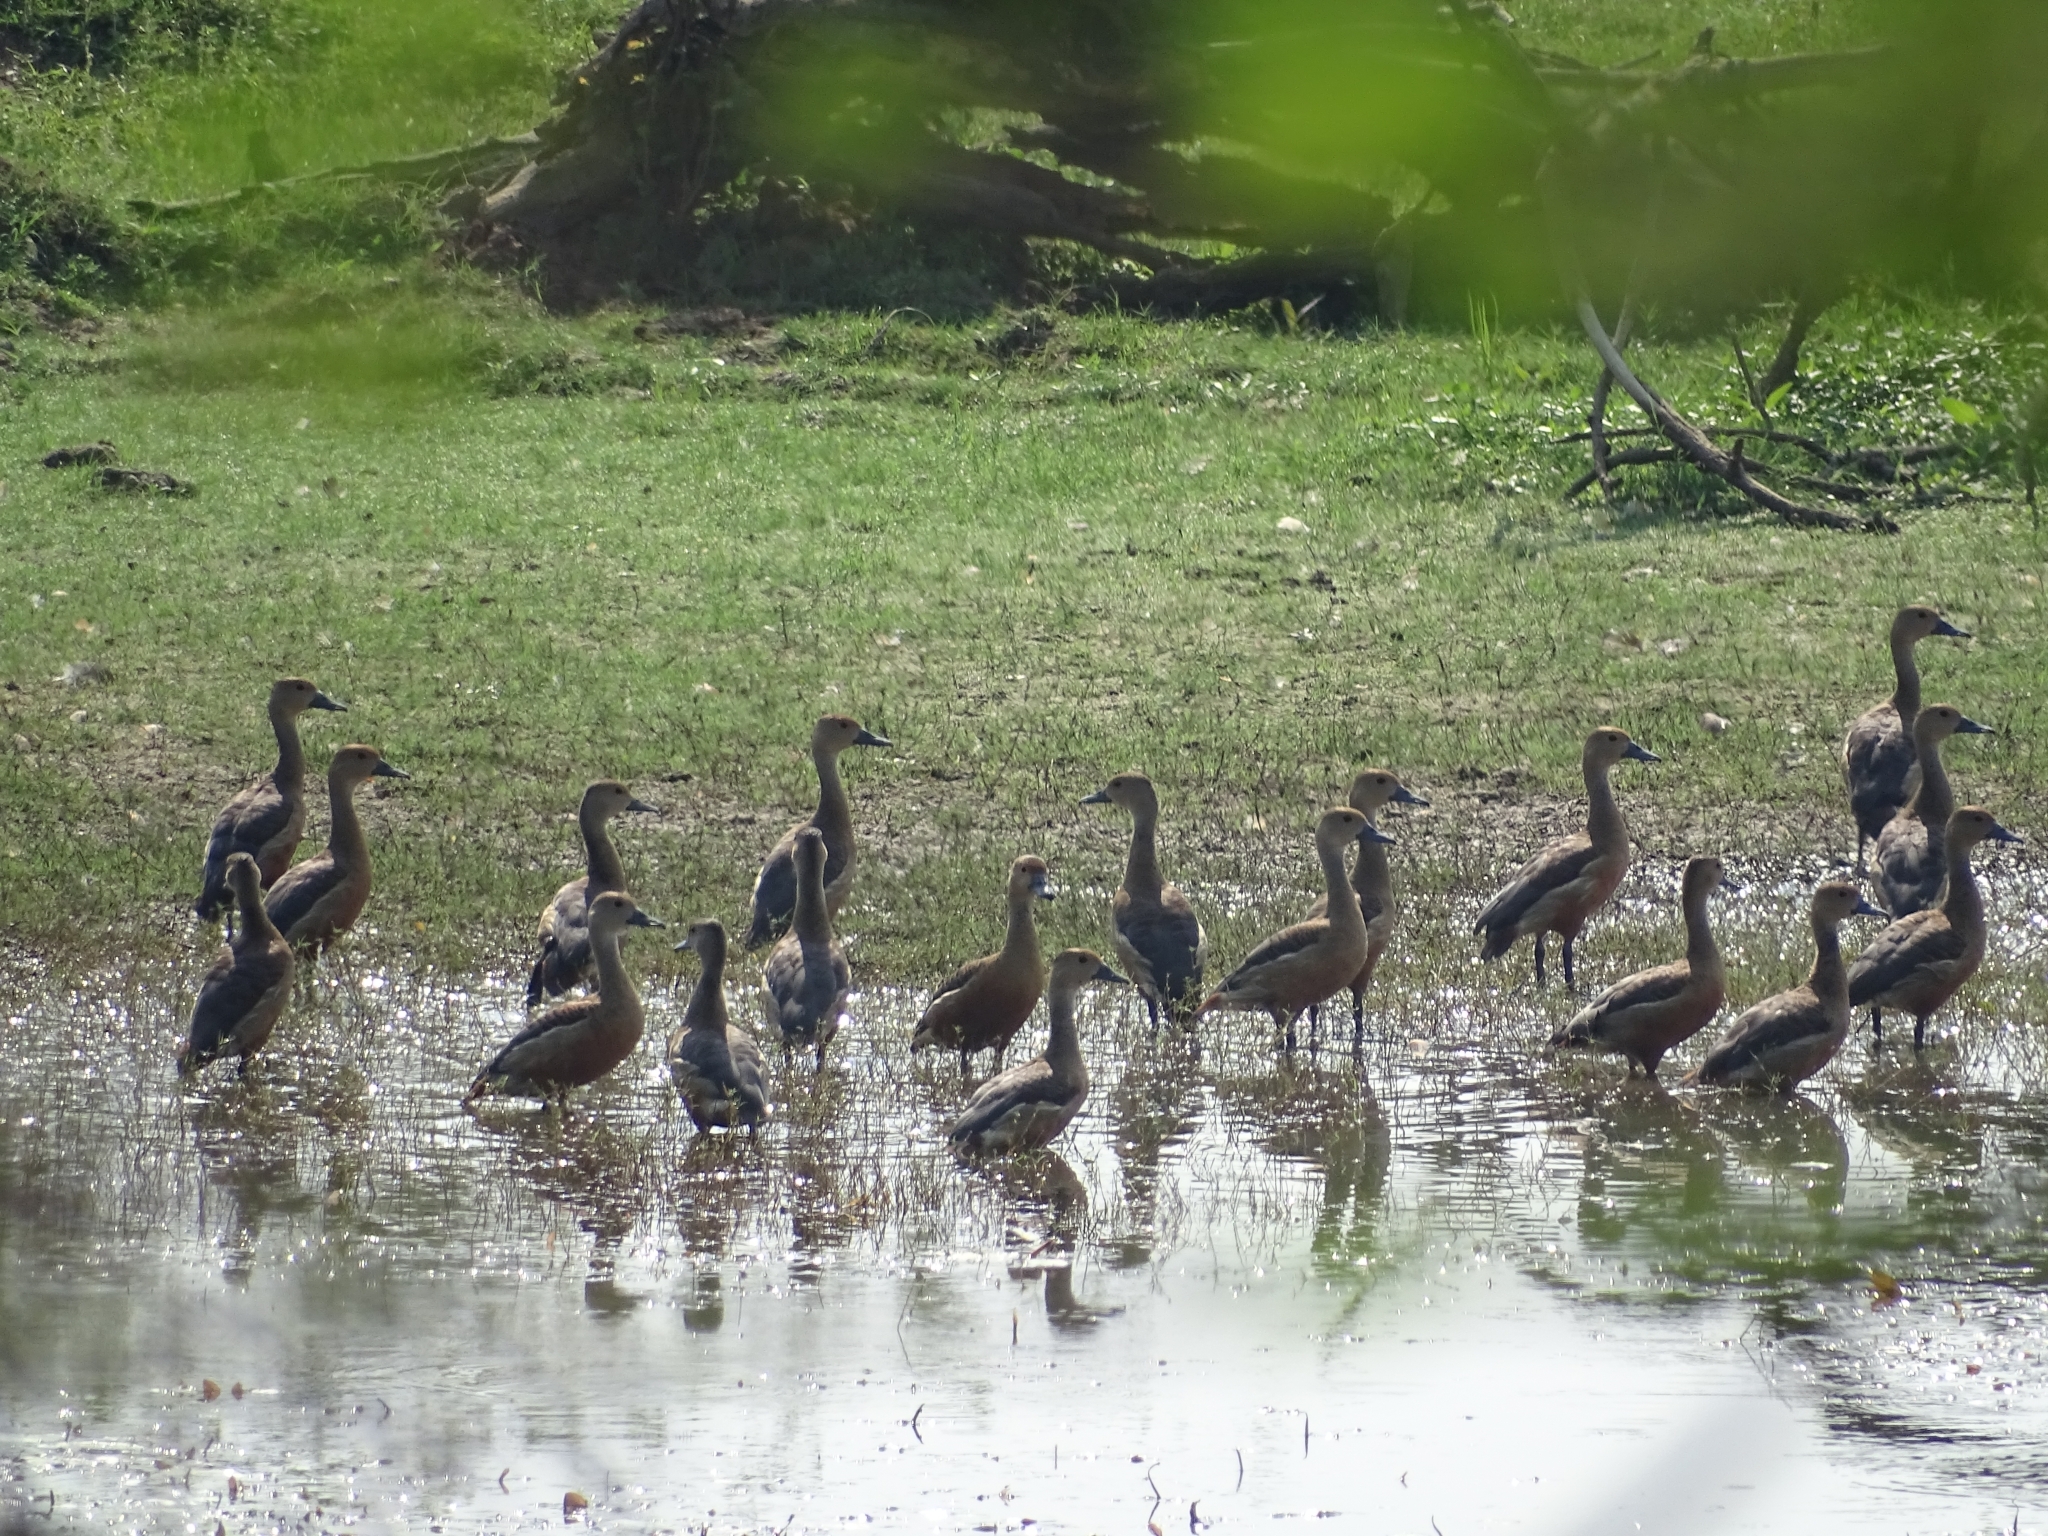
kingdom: Animalia
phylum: Chordata
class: Aves
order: Anseriformes
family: Anatidae
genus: Dendrocygna
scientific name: Dendrocygna javanica
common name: Lesser whistling-duck
